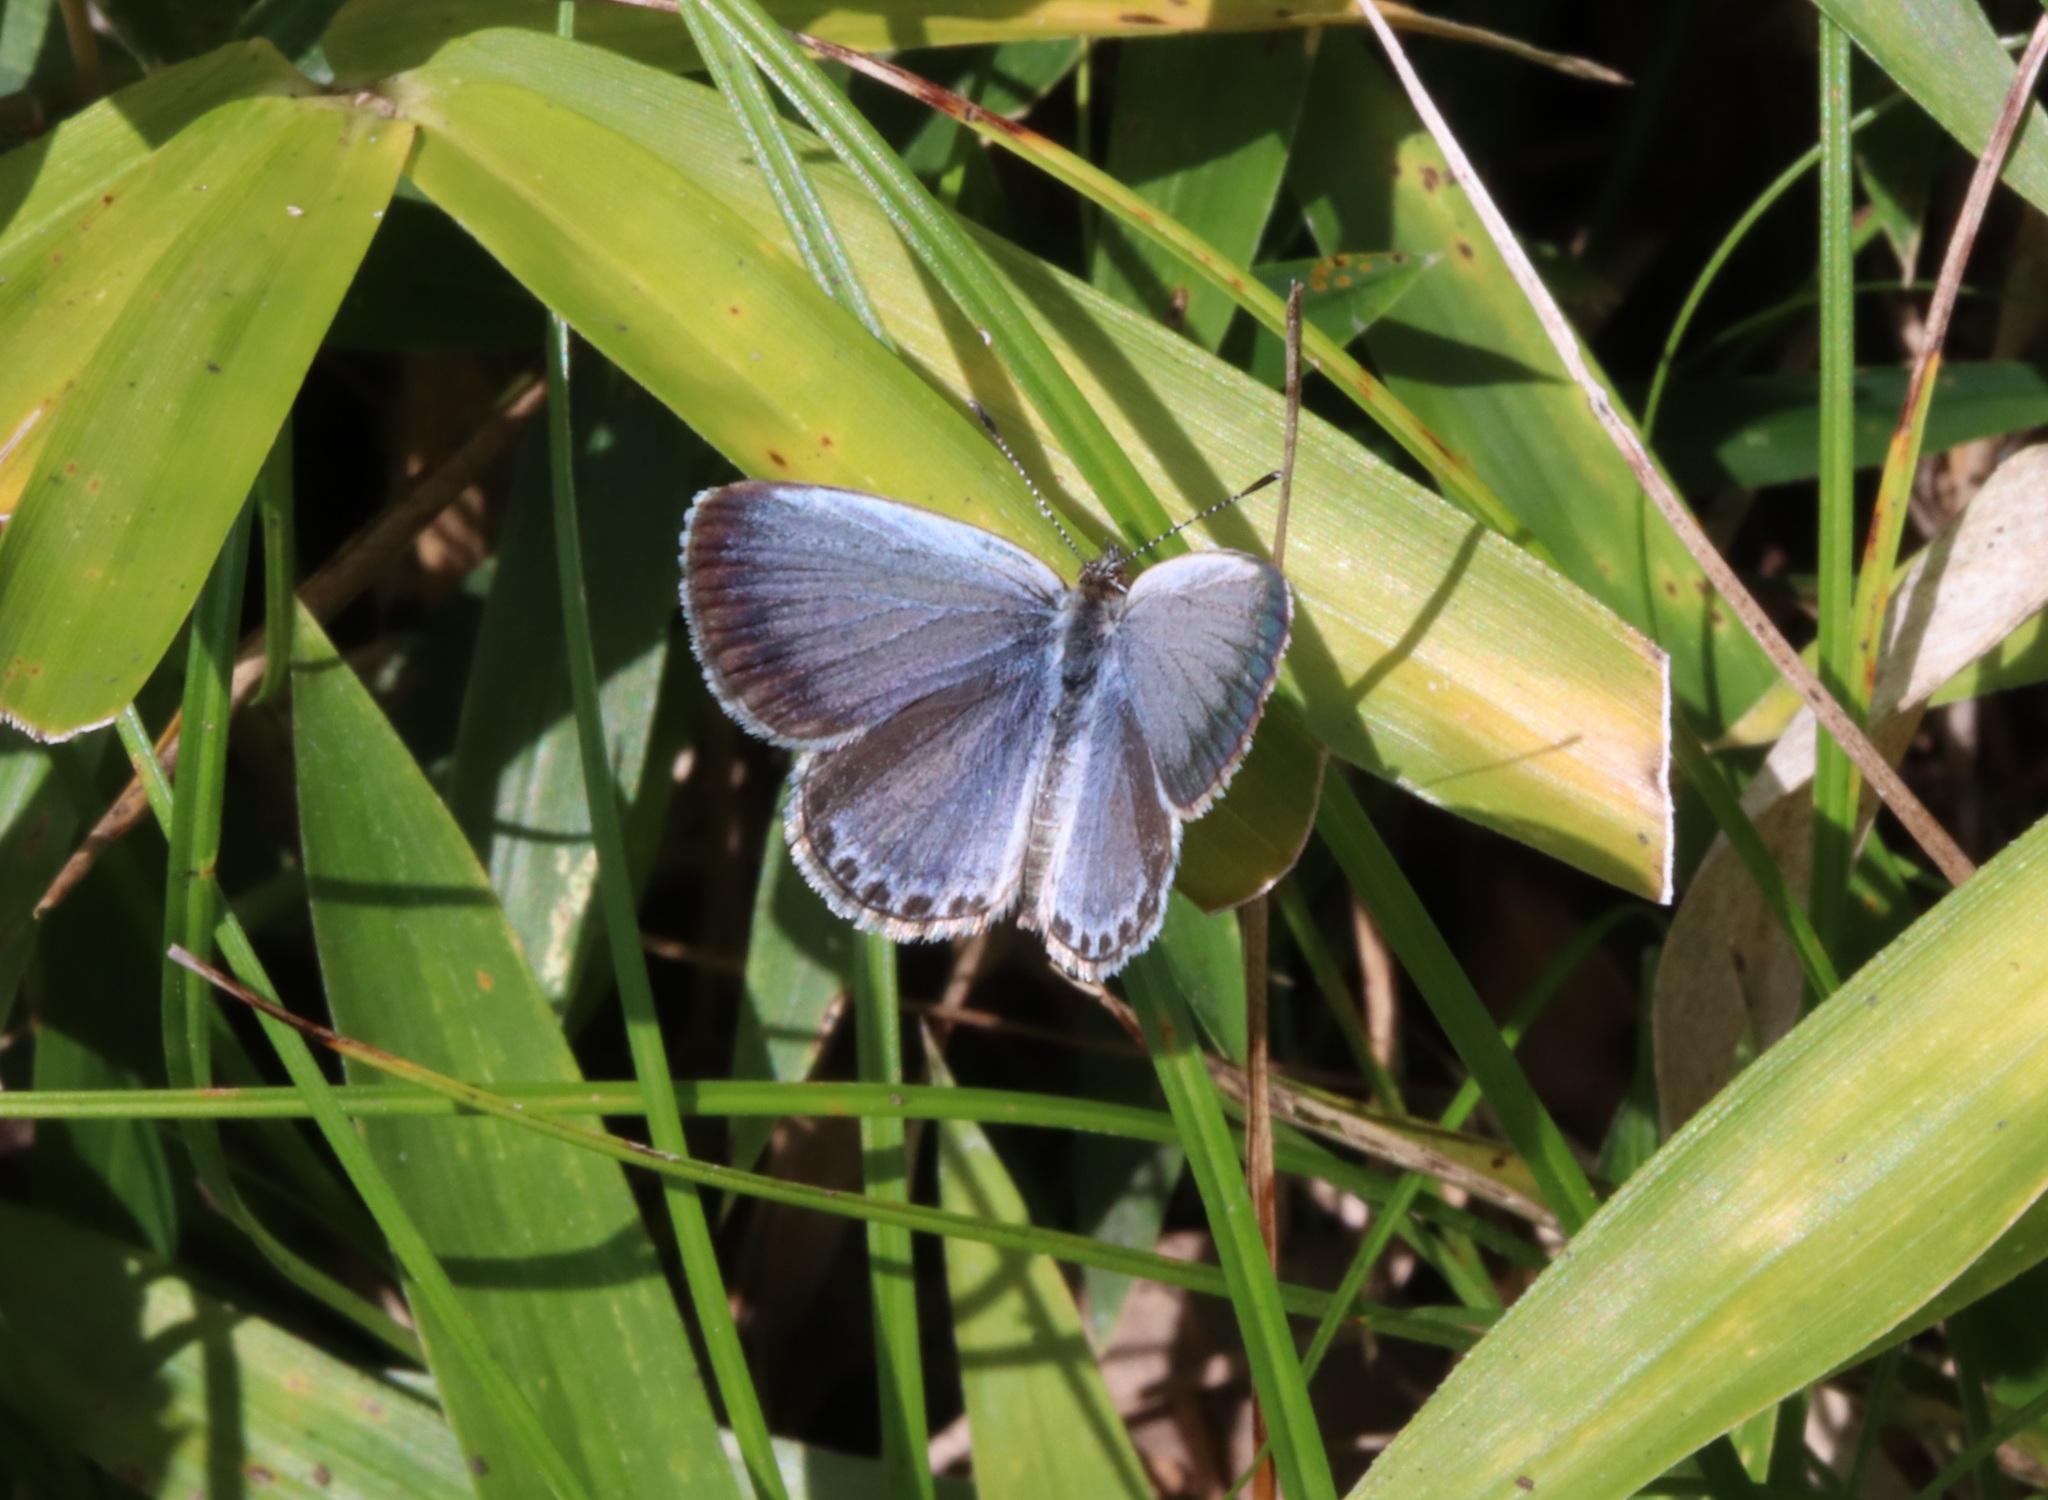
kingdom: Animalia
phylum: Arthropoda
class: Insecta
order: Lepidoptera
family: Lycaenidae
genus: Pseudozizeeria
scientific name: Pseudozizeeria maha
